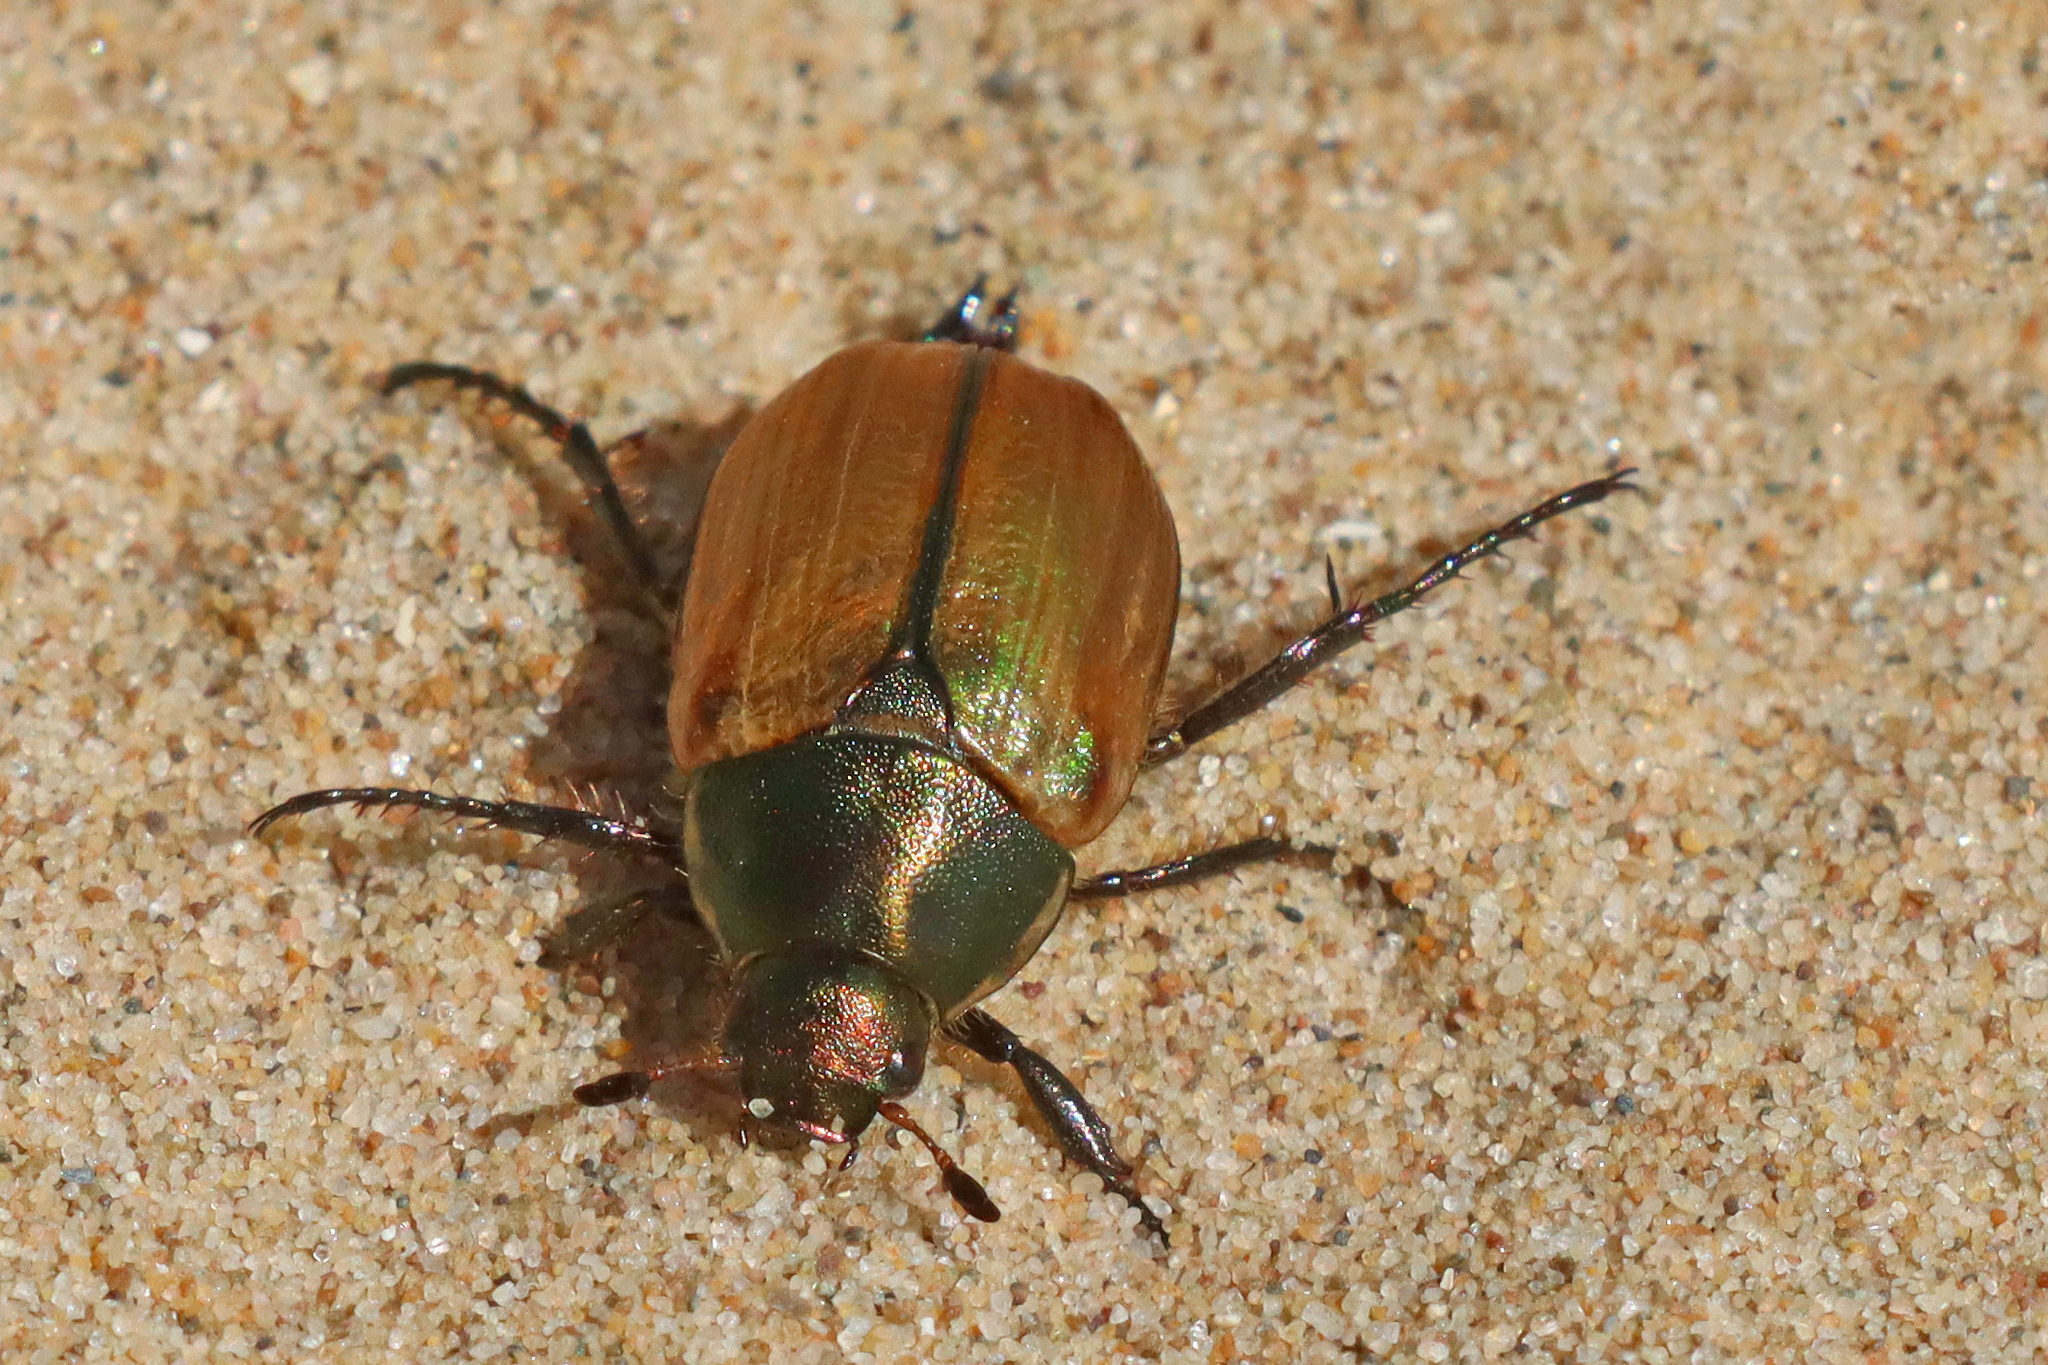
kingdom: Animalia
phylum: Arthropoda
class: Insecta
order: Coleoptera
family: Scarabaeidae
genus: Anomala
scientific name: Anomala dubia
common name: Dune chafer
